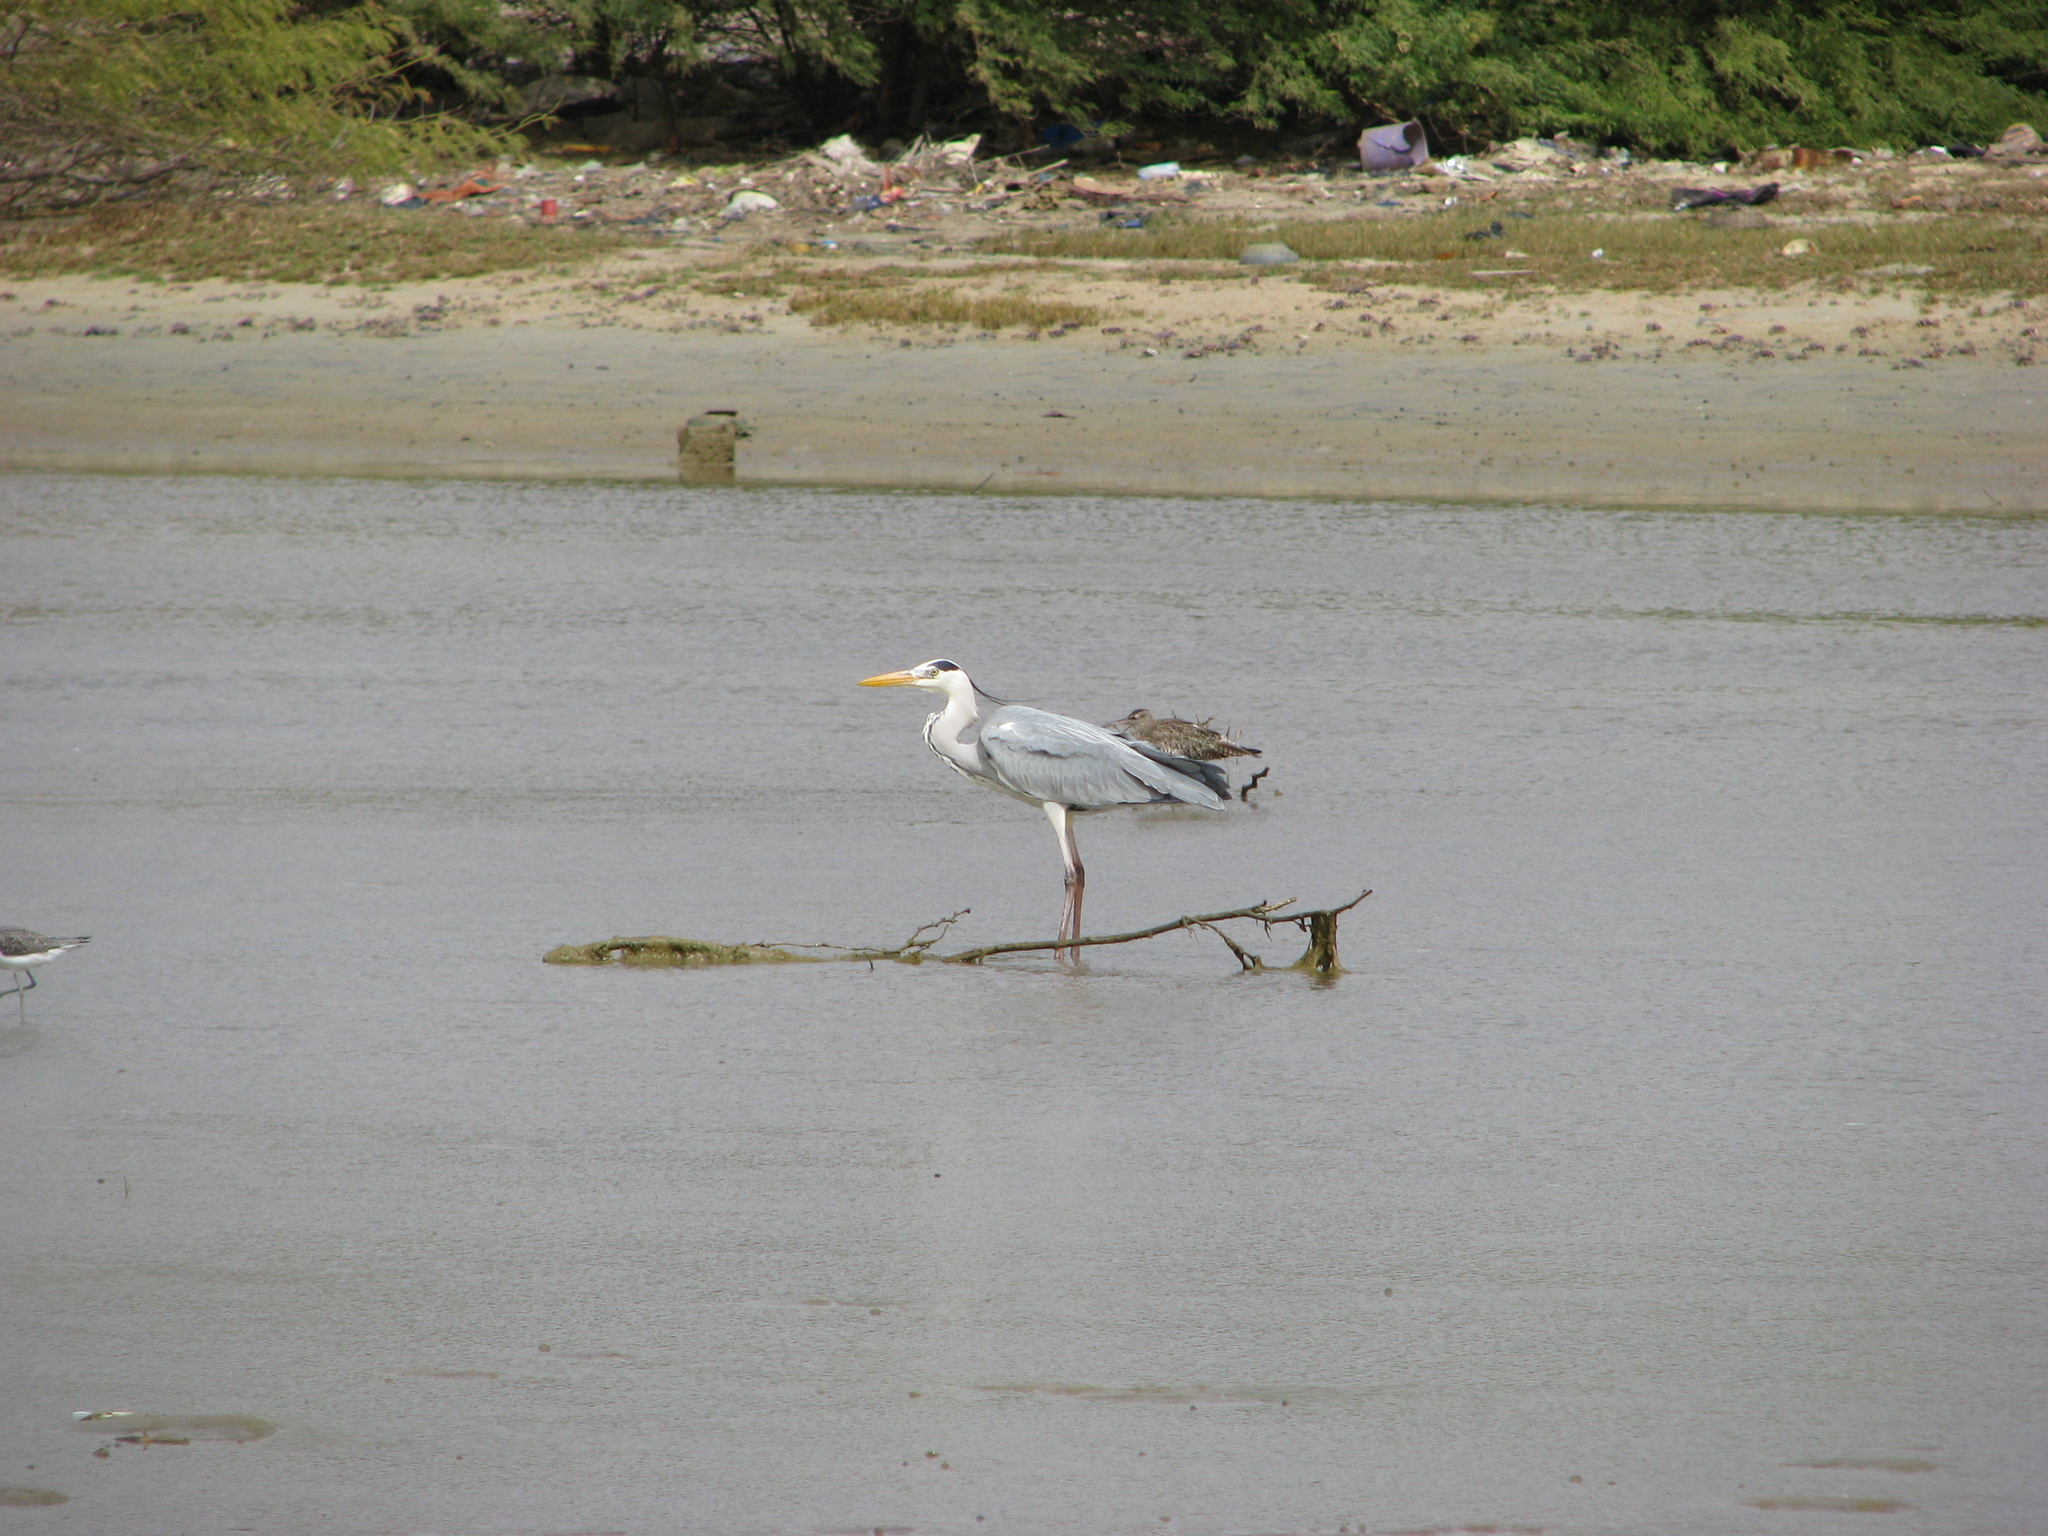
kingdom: Animalia
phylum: Chordata
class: Aves
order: Pelecaniformes
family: Ardeidae
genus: Ardea
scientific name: Ardea cinerea
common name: Grey heron
